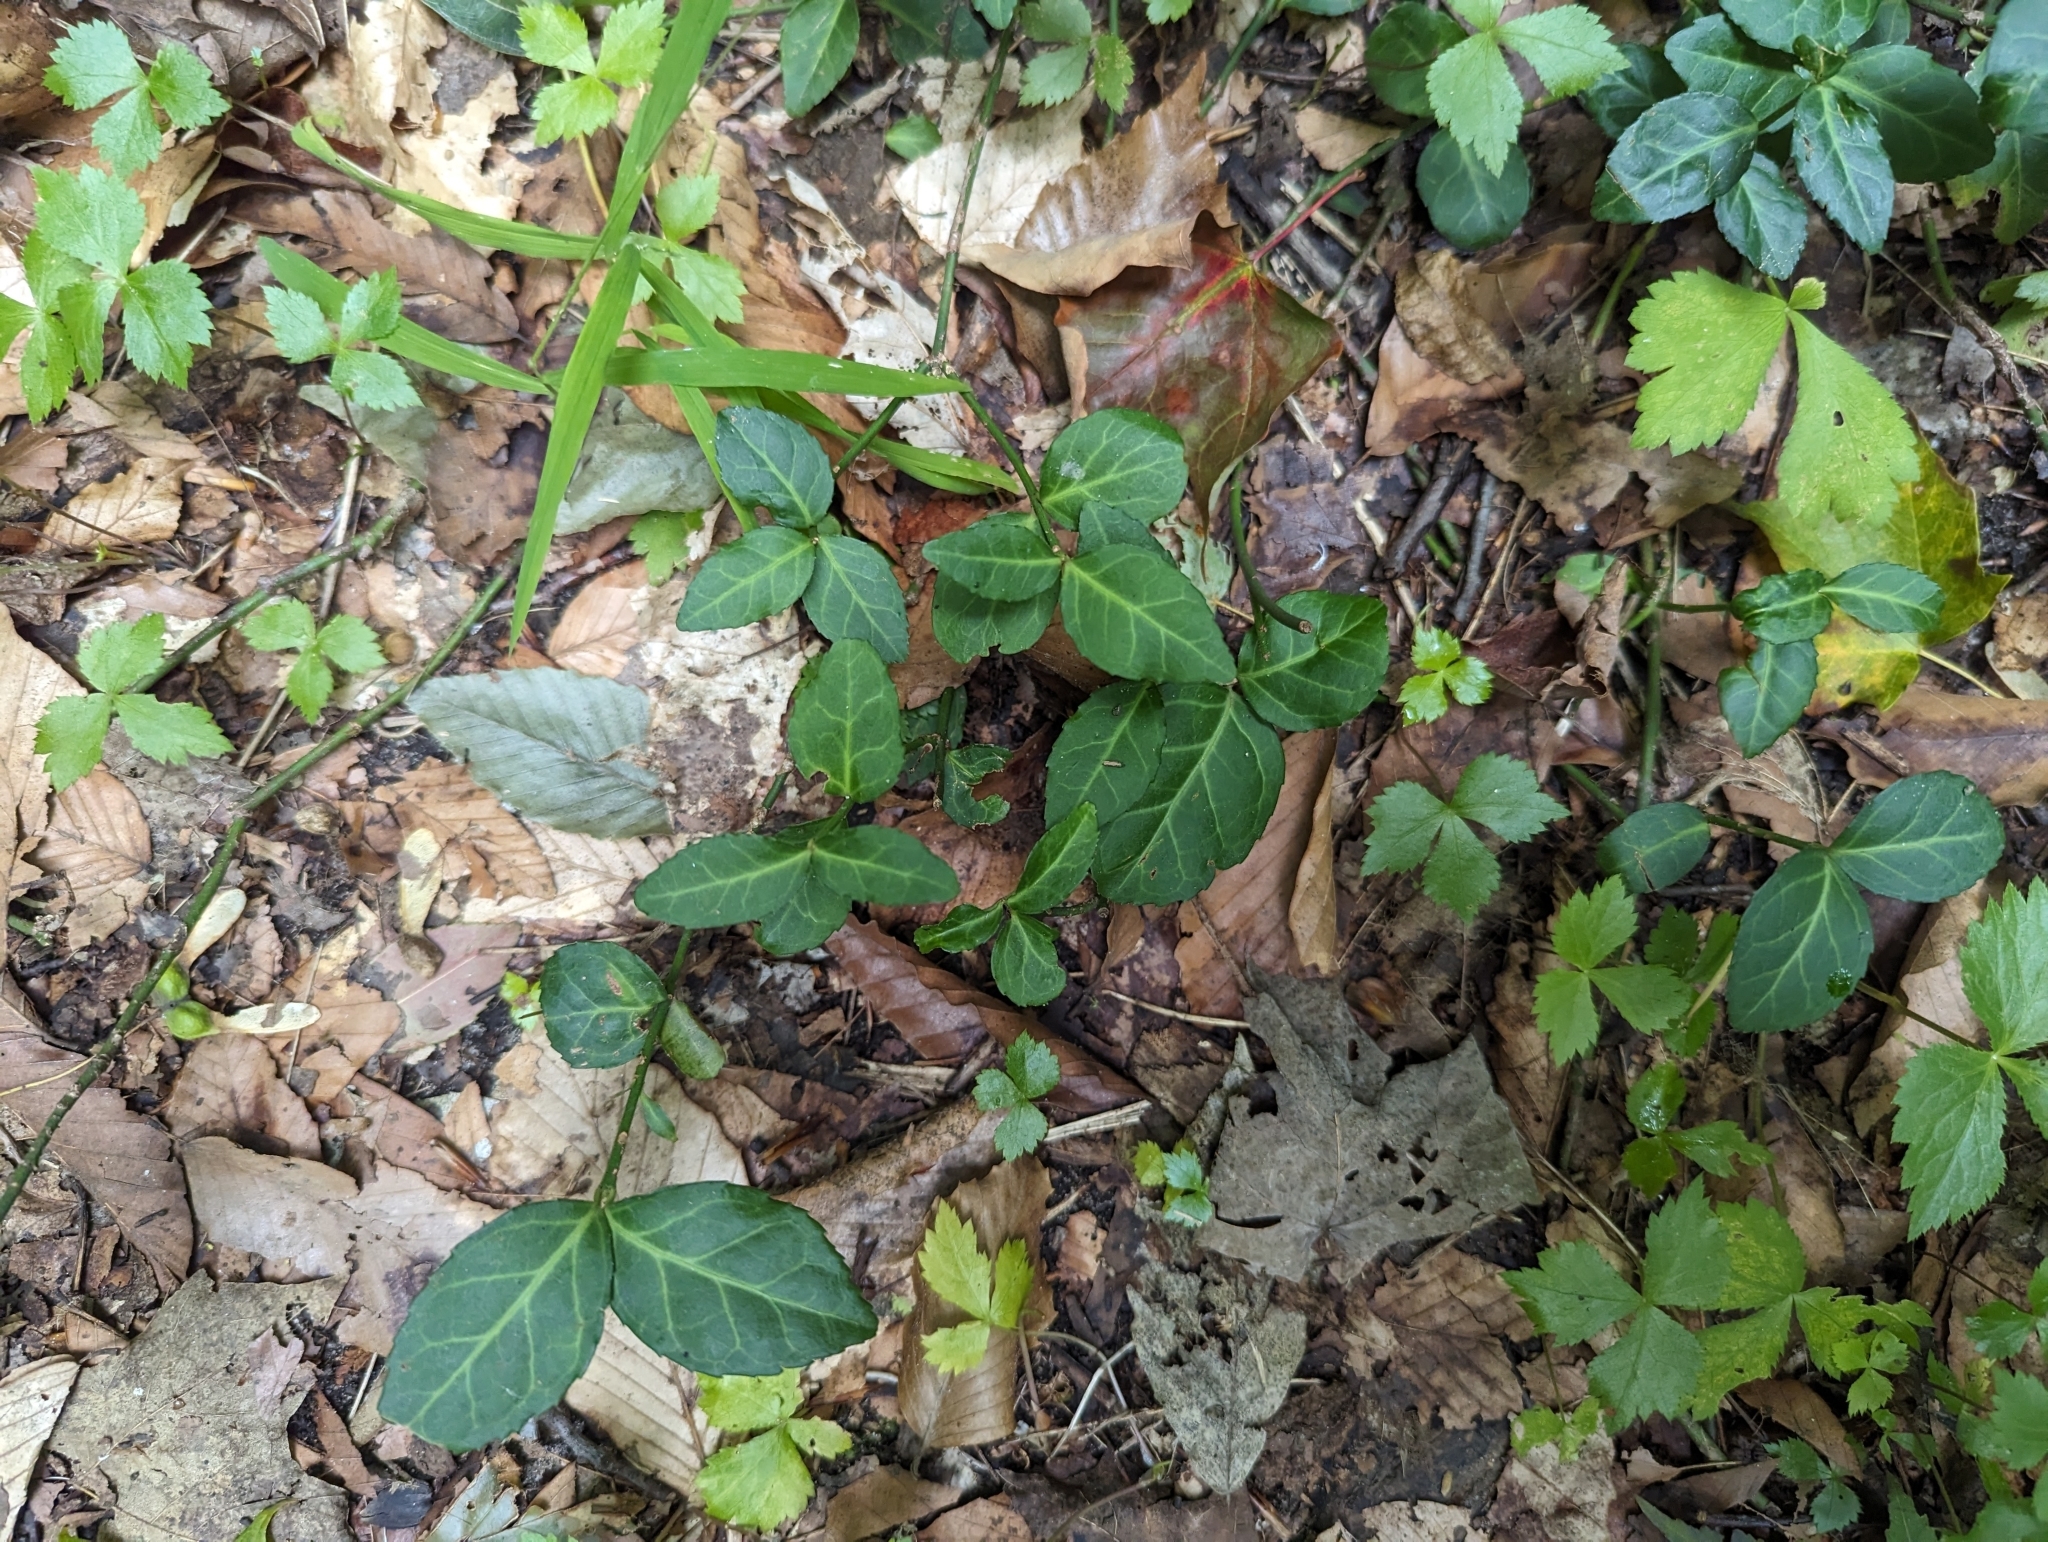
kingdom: Plantae
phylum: Tracheophyta
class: Magnoliopsida
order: Celastrales
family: Celastraceae
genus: Euonymus
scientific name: Euonymus fortunei
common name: Climbing euonymus
